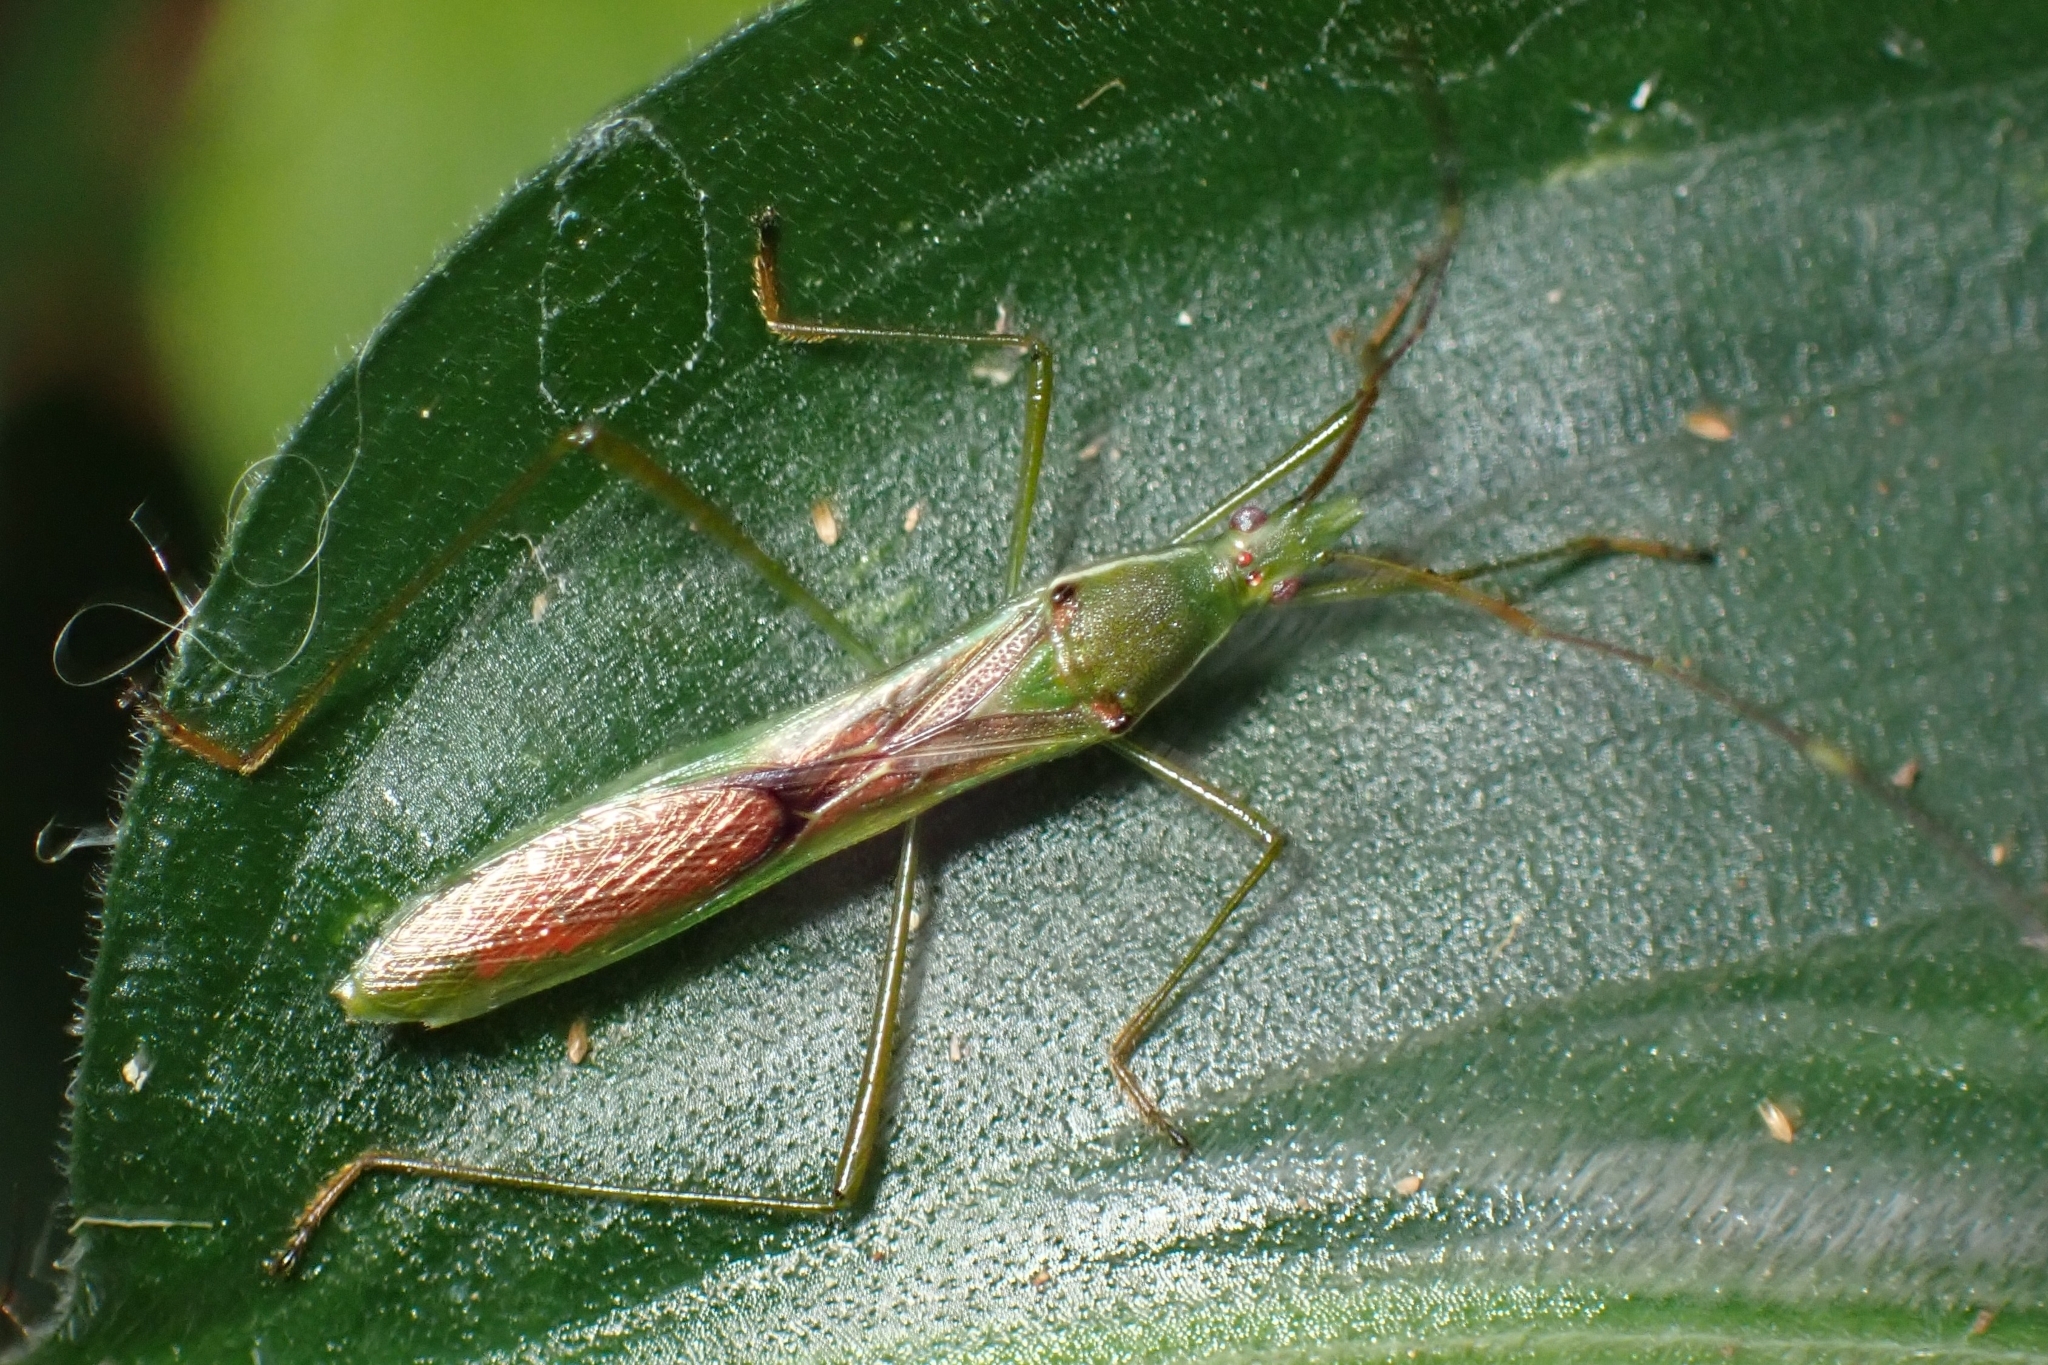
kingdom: Animalia
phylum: Arthropoda
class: Insecta
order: Hemiptera
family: Alydidae
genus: Leptocorisa
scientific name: Leptocorisa acuta
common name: Gandhi bug
